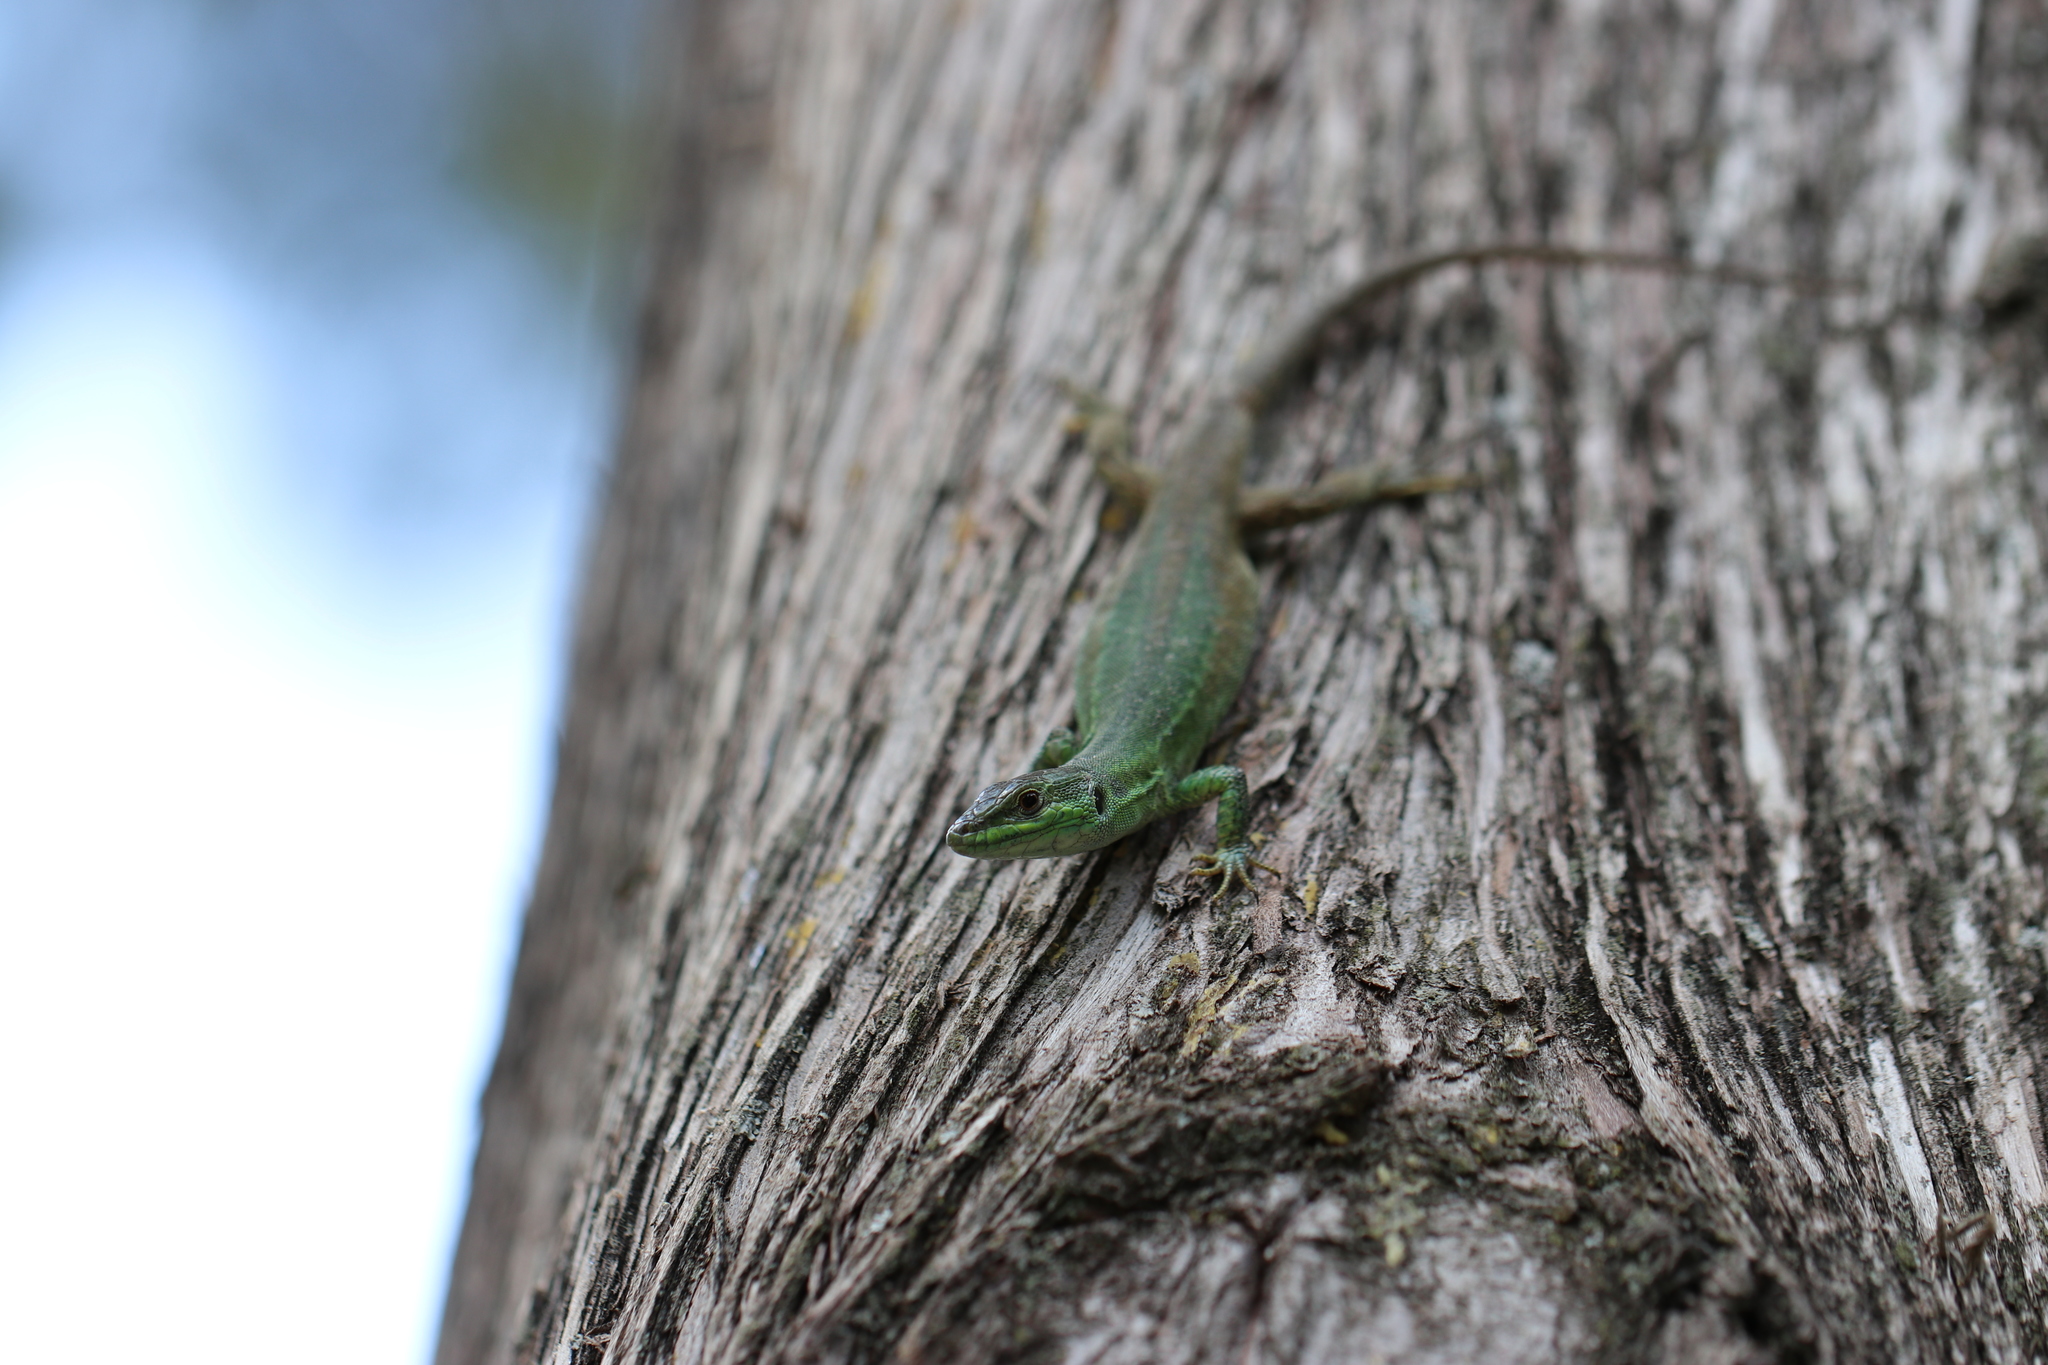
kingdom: Animalia
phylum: Chordata
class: Squamata
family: Lacertidae
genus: Podarcis
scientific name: Podarcis siculus
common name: Italian wall lizard
